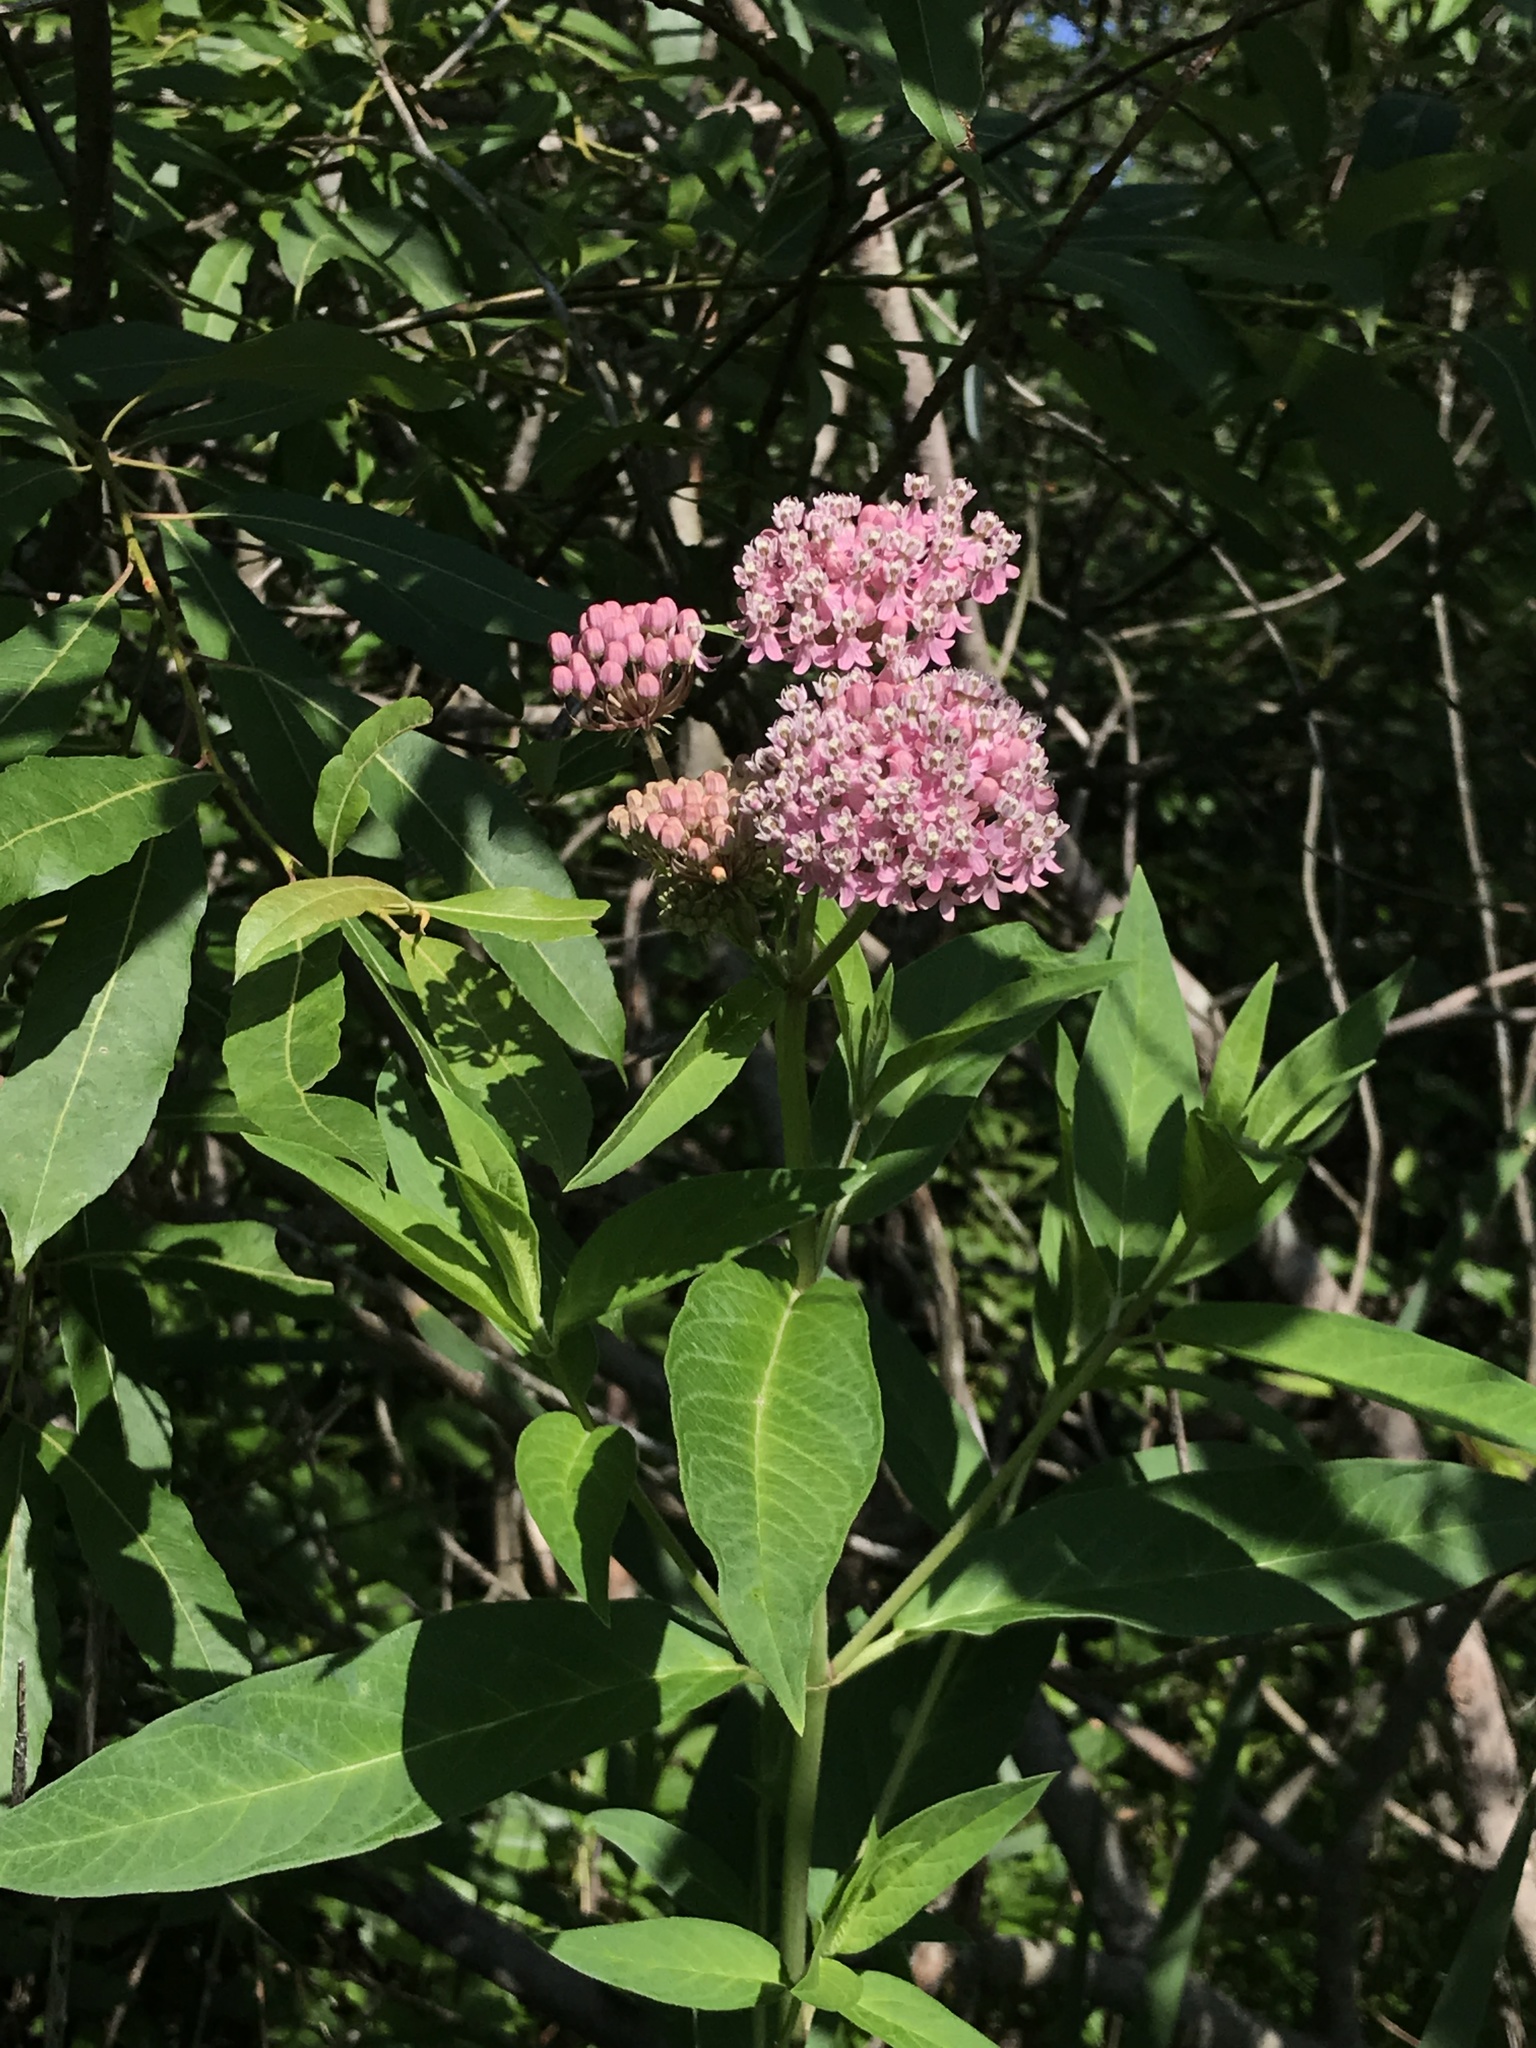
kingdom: Plantae
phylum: Tracheophyta
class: Magnoliopsida
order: Gentianales
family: Apocynaceae
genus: Asclepias
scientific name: Asclepias incarnata
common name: Swamp milkweed
